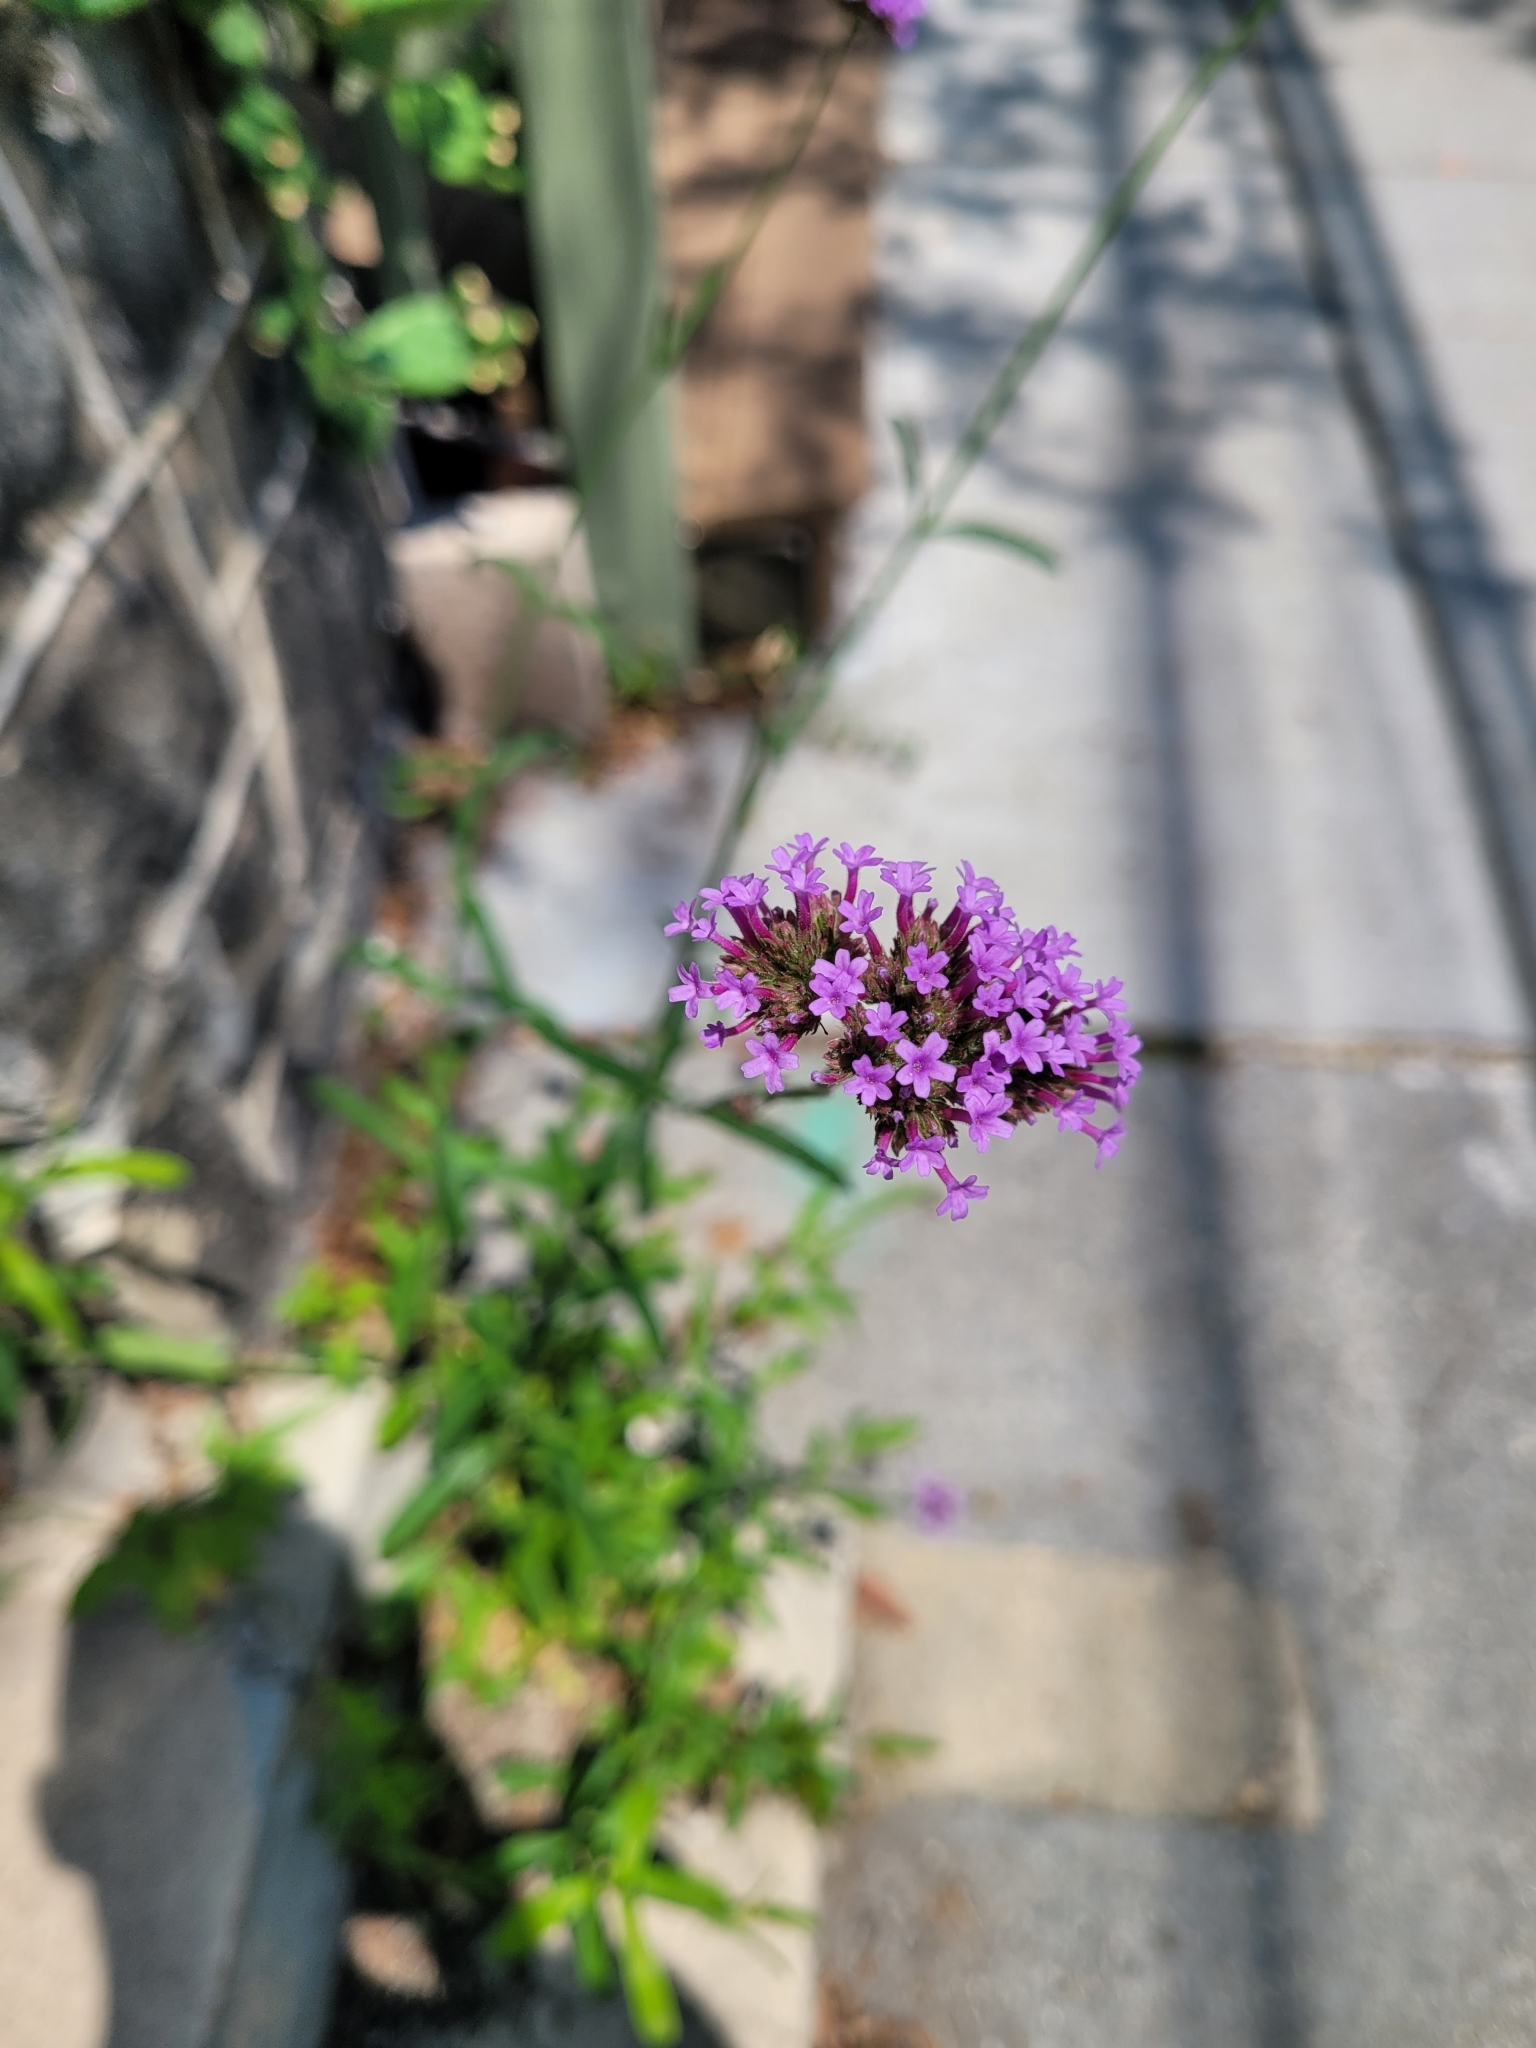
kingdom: Plantae
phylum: Tracheophyta
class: Magnoliopsida
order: Lamiales
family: Verbenaceae
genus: Verbena
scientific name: Verbena bonariensis
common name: Purpletop vervain
